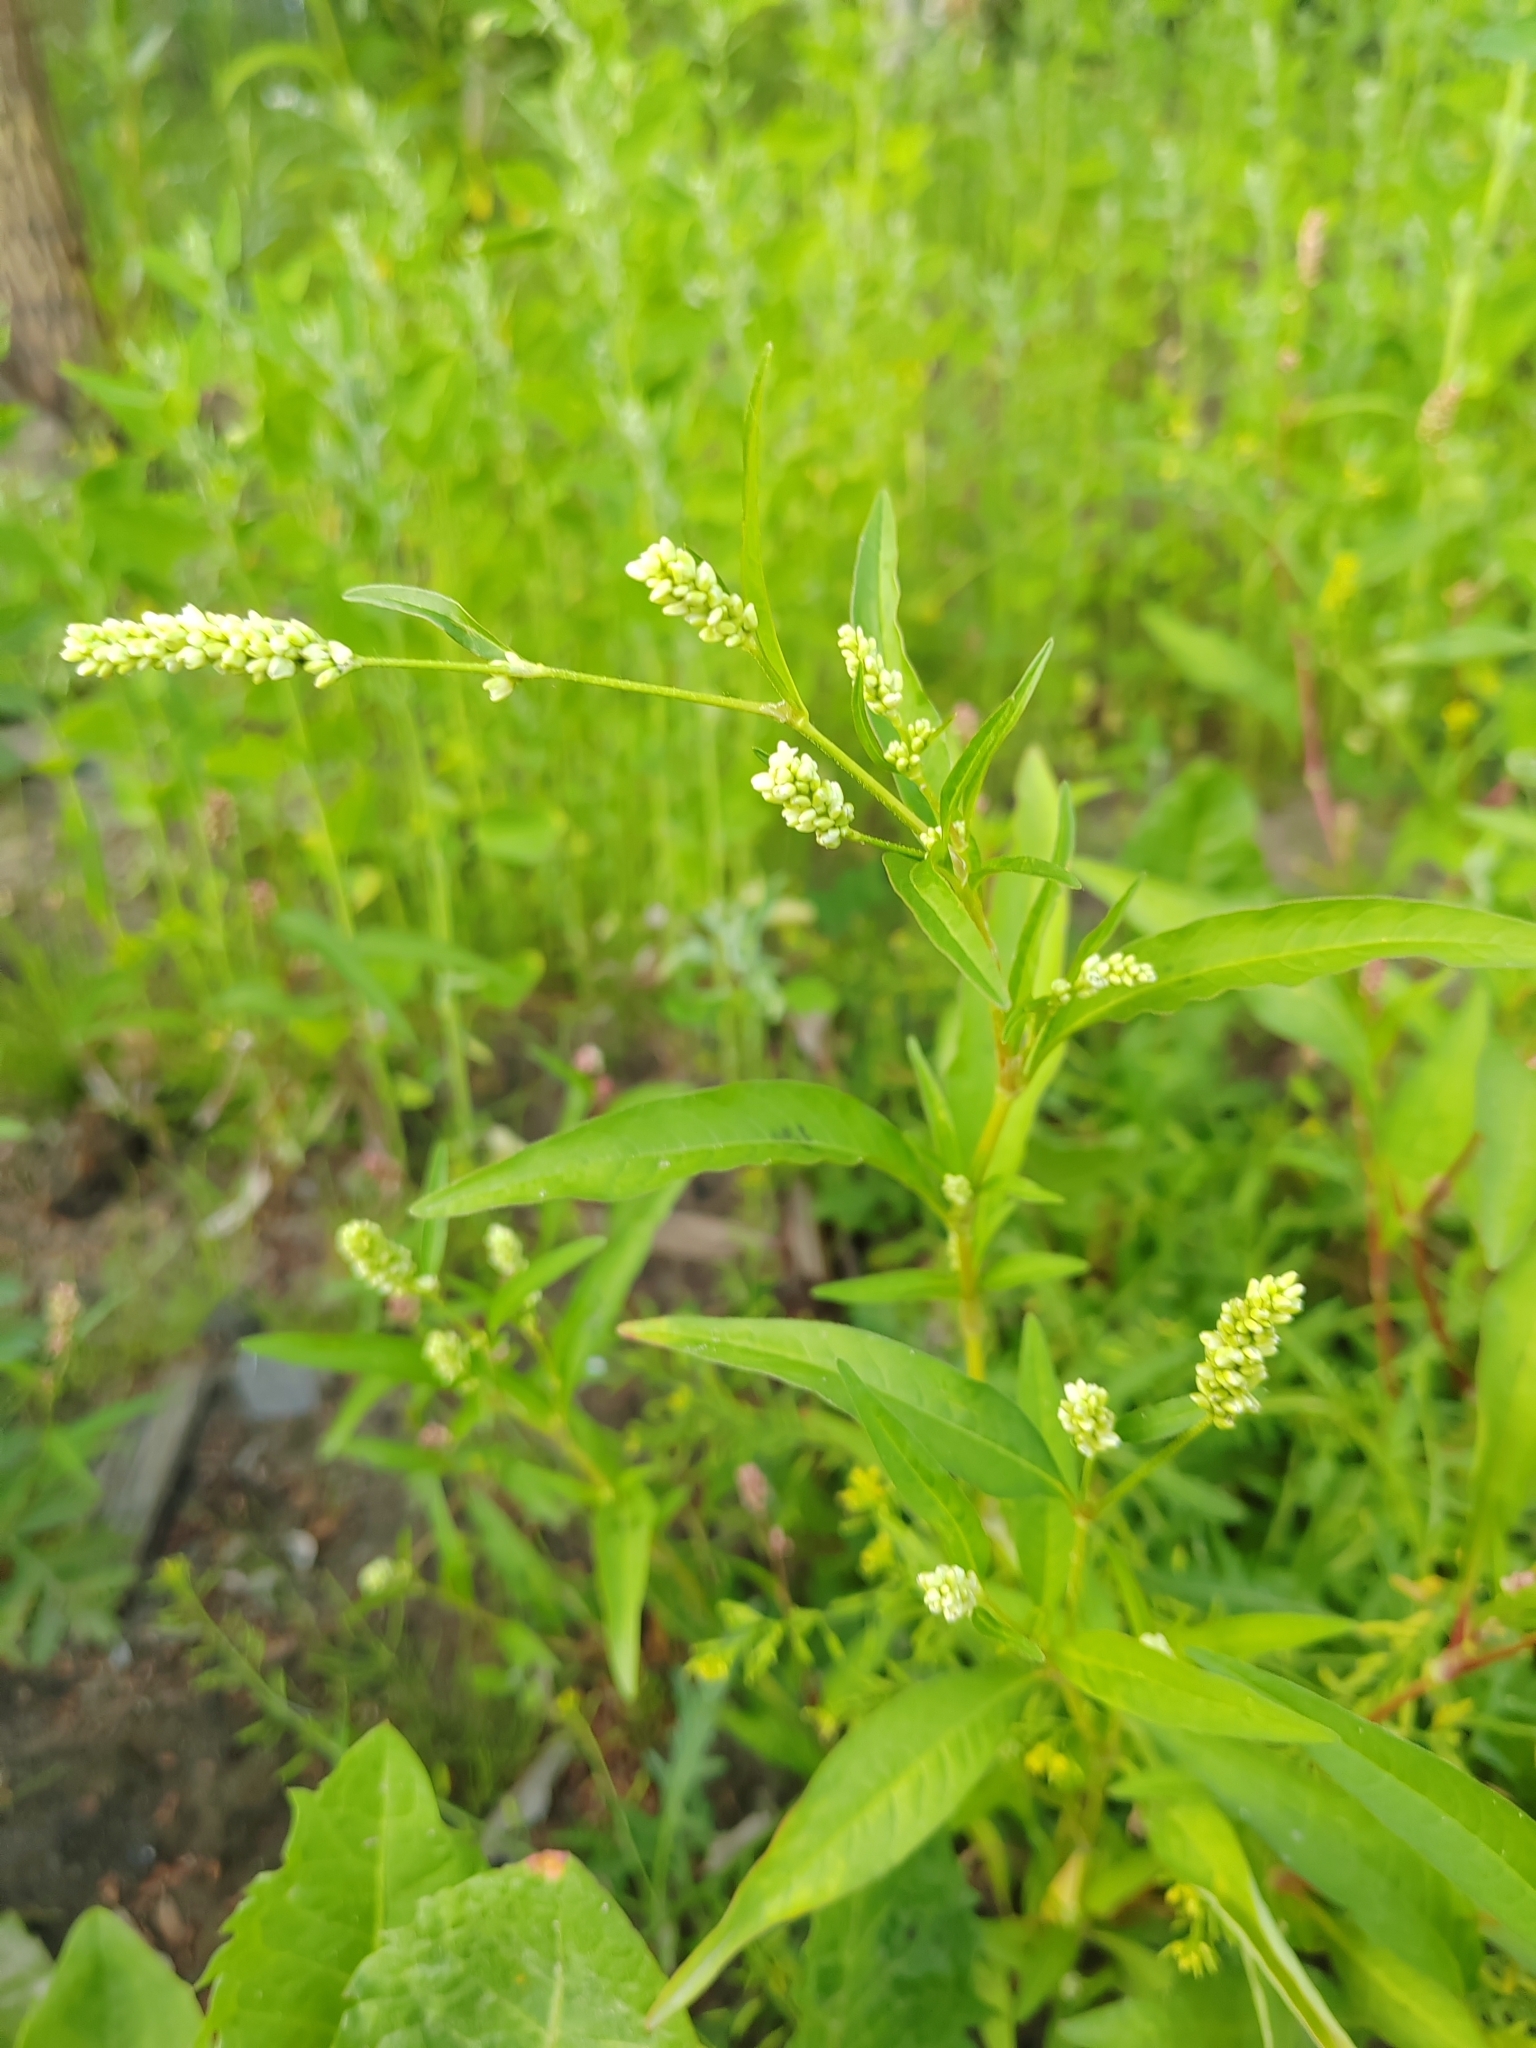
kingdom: Plantae
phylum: Tracheophyta
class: Magnoliopsida
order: Caryophyllales
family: Polygonaceae
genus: Persicaria
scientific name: Persicaria lapathifolia
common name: Curlytop knotweed
